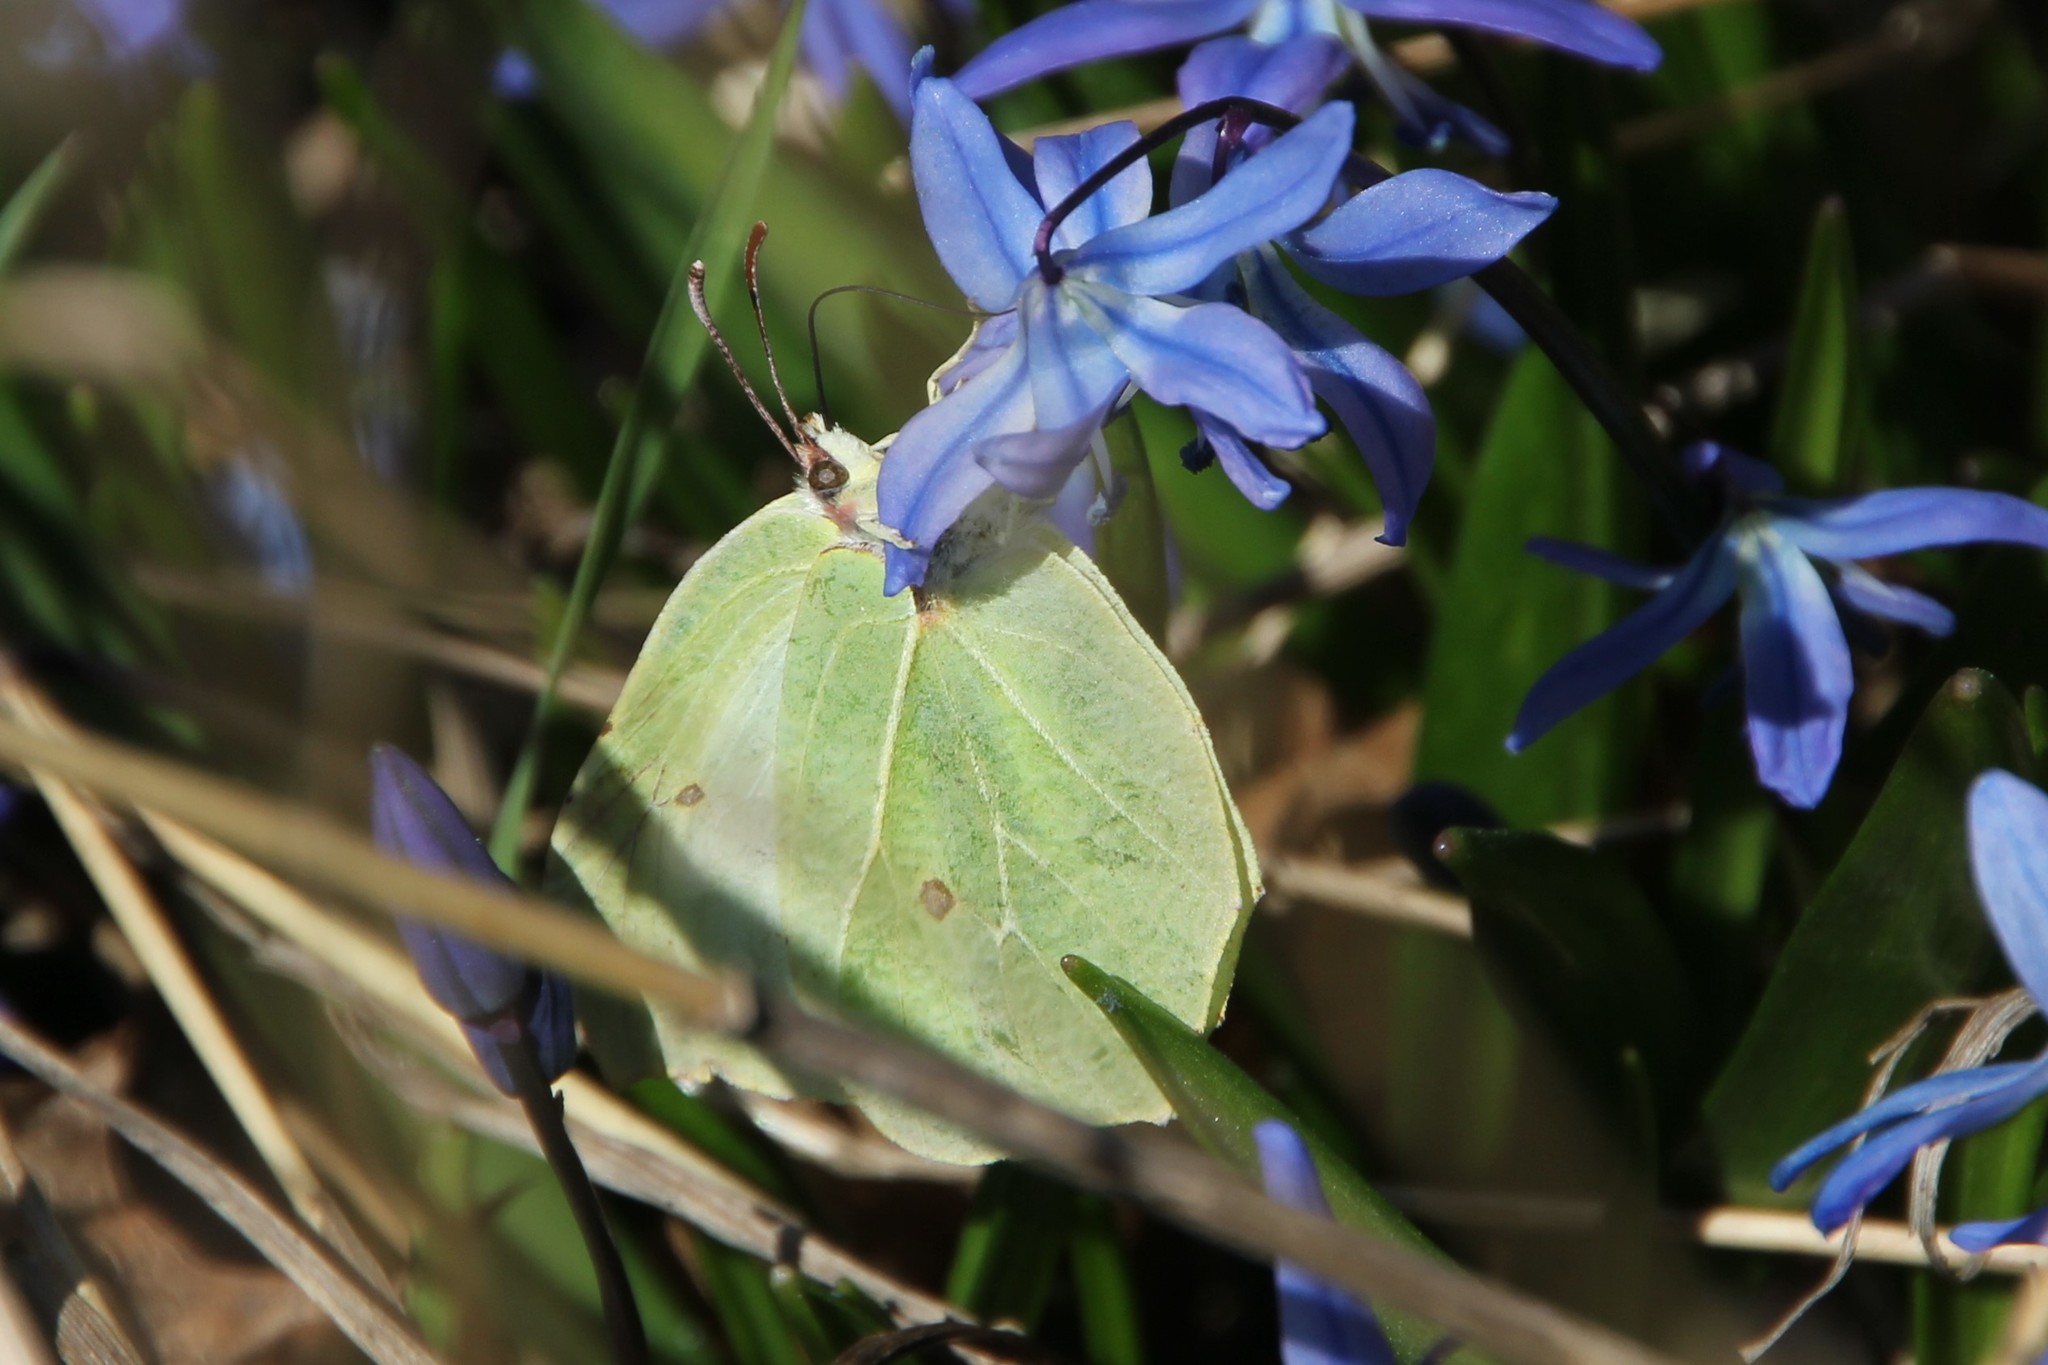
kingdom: Animalia
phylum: Arthropoda
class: Insecta
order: Lepidoptera
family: Pieridae
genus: Gonepteryx
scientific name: Gonepteryx rhamni
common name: Brimstone
